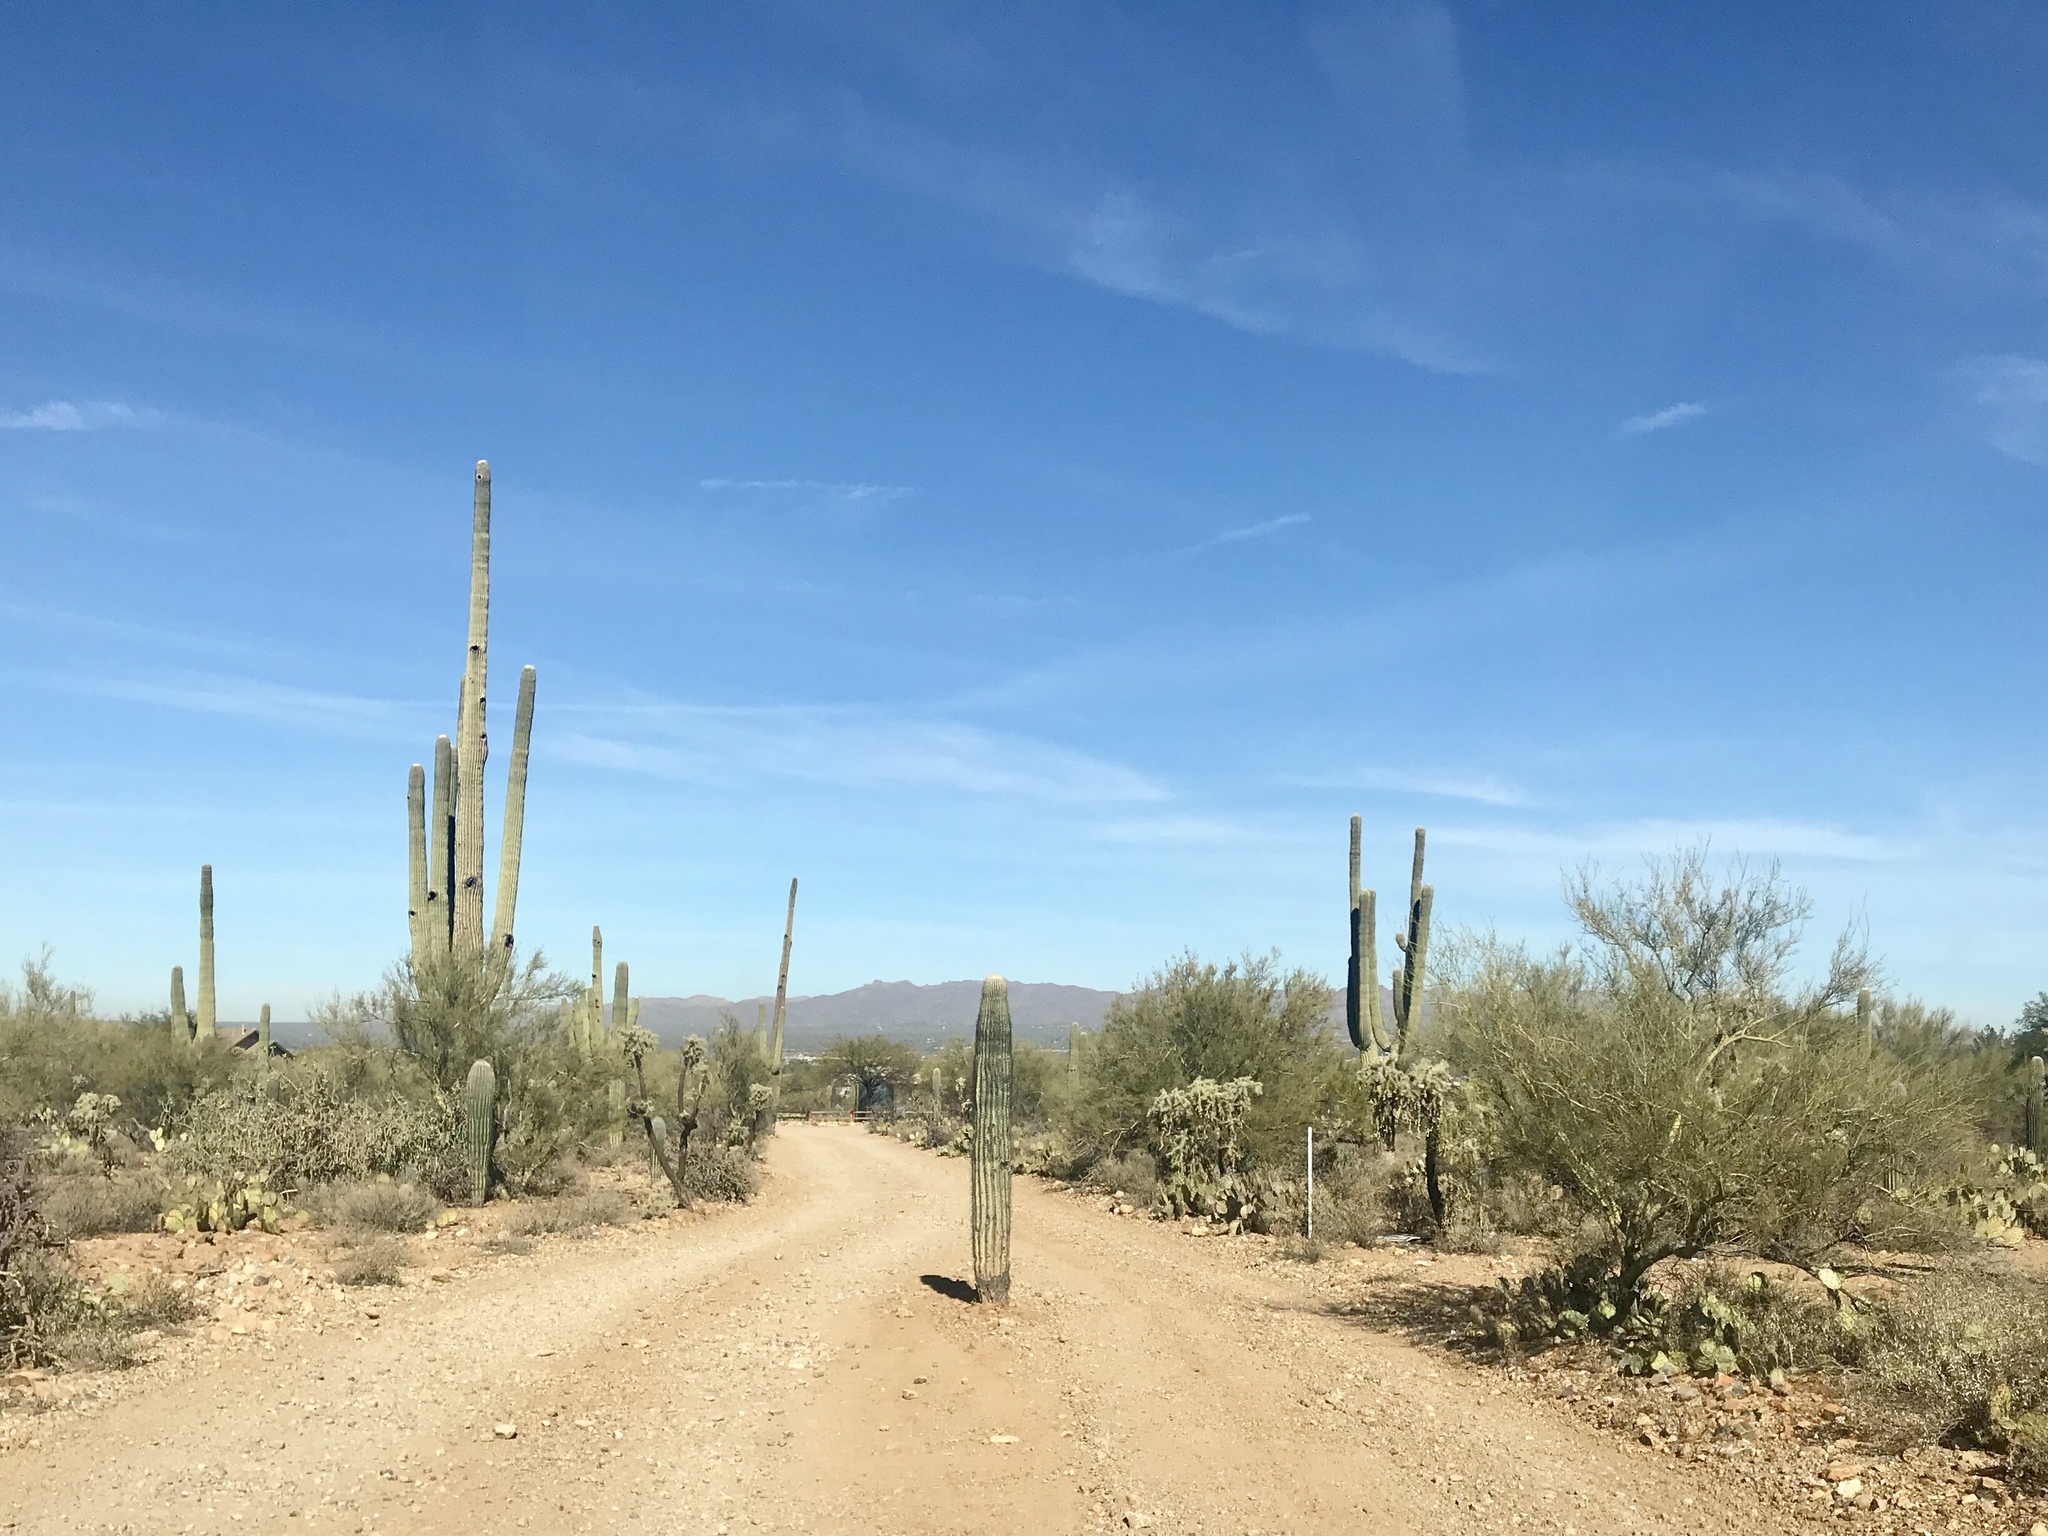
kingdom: Plantae
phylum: Tracheophyta
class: Magnoliopsida
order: Caryophyllales
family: Cactaceae
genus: Carnegiea
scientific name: Carnegiea gigantea
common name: Saguaro
